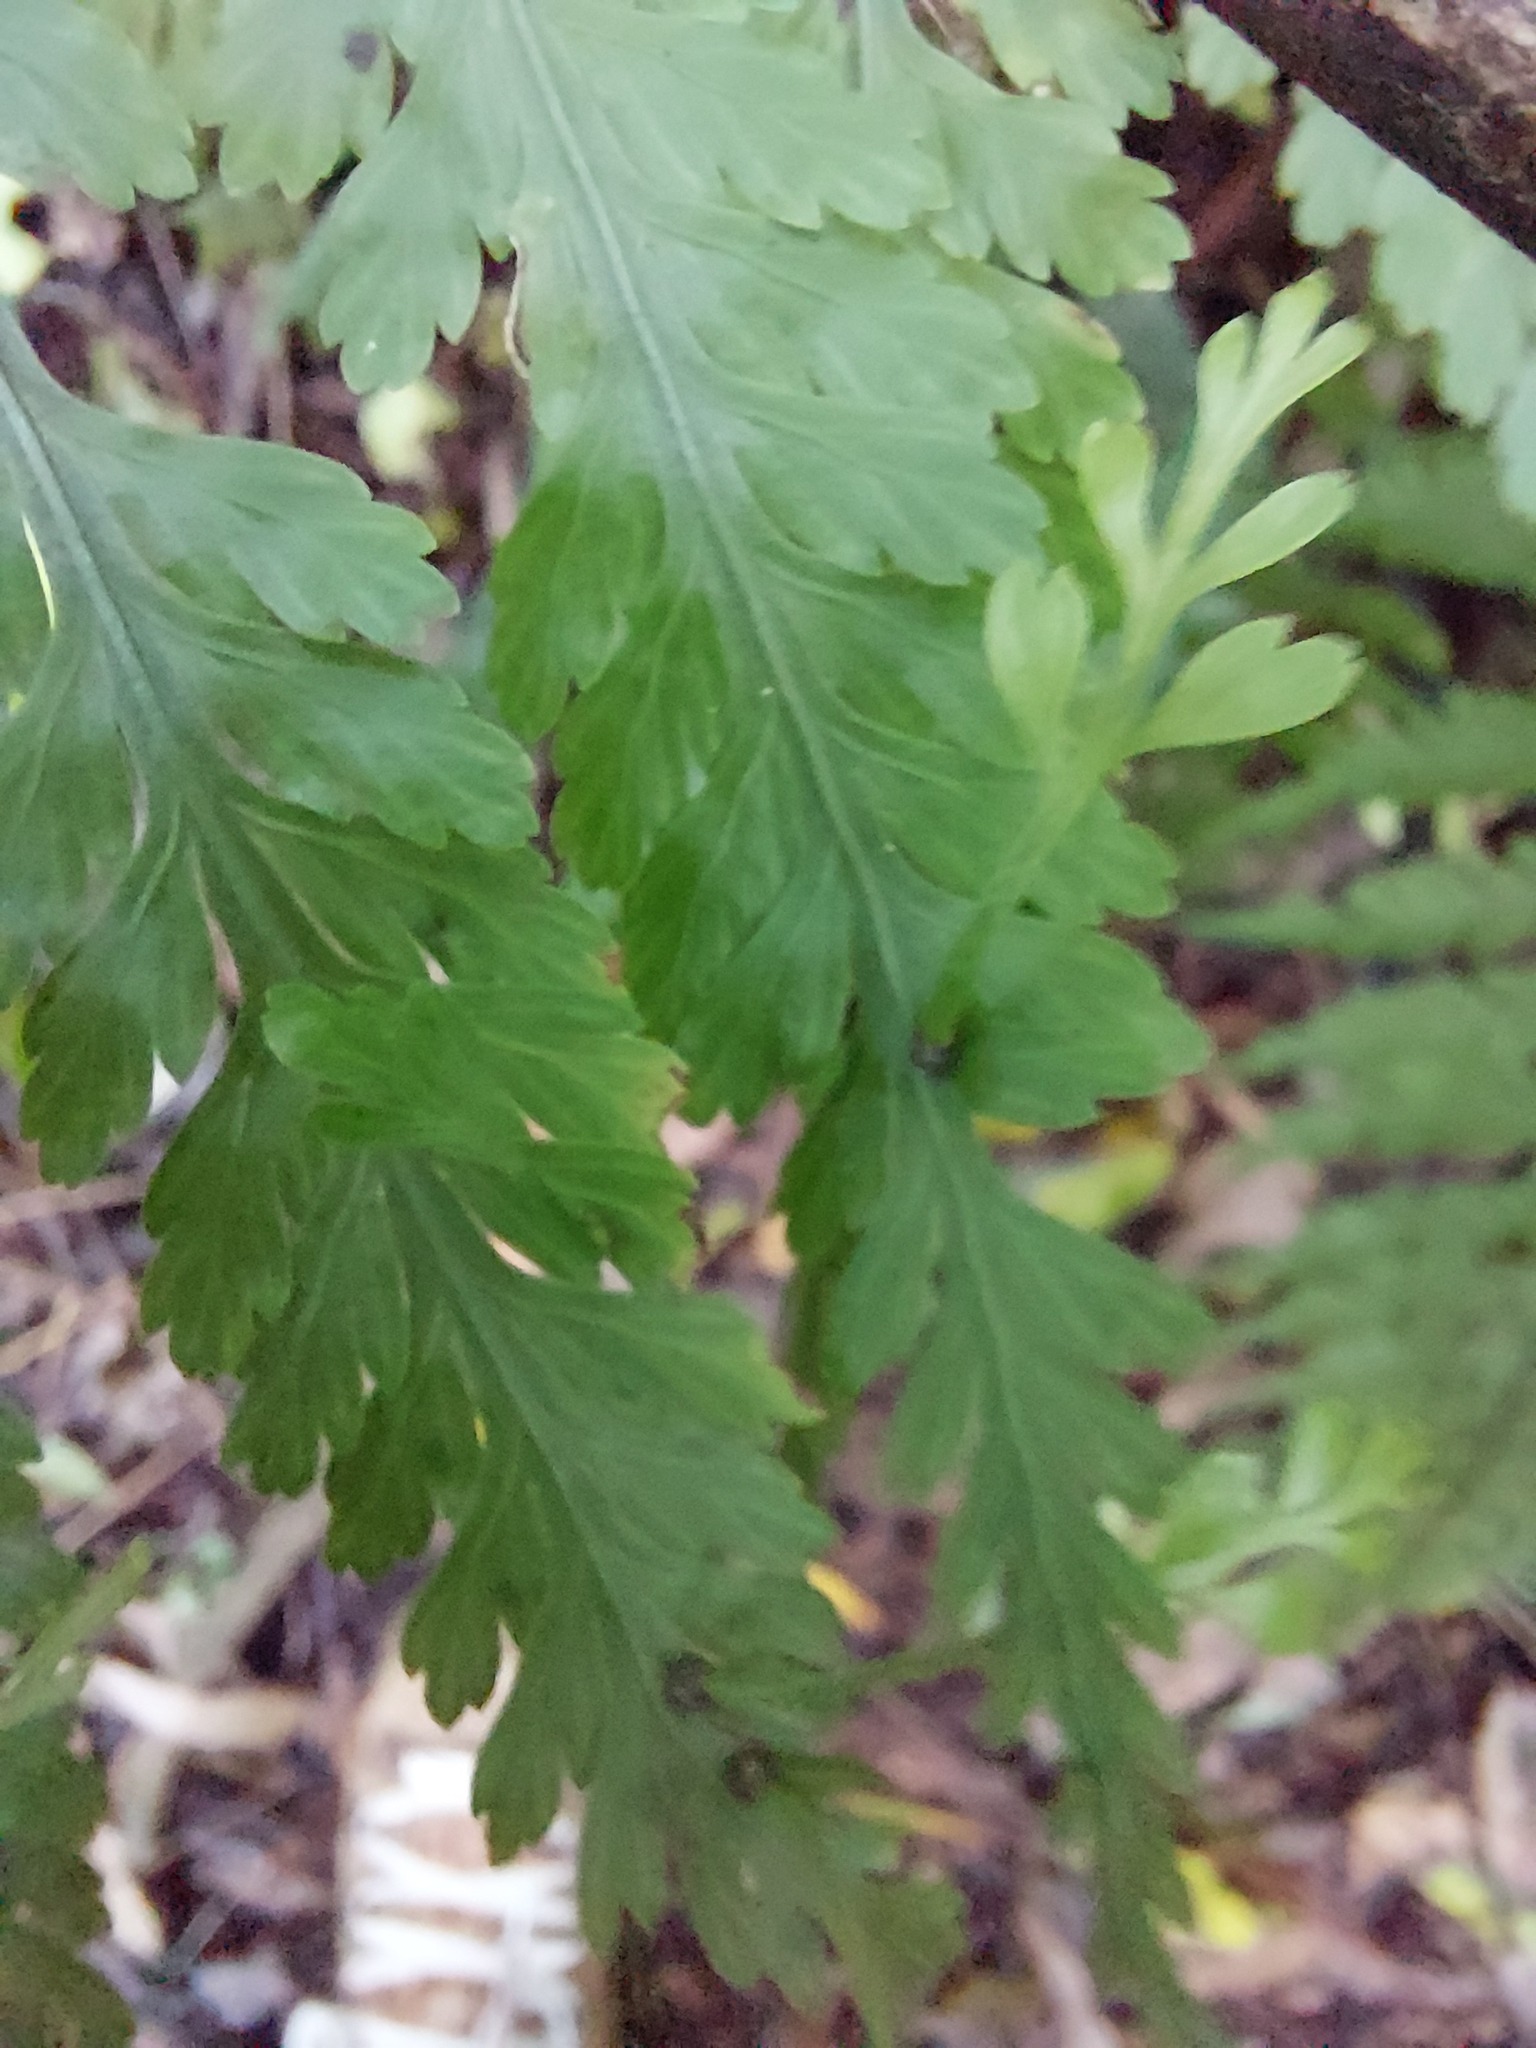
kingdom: Plantae
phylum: Tracheophyta
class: Polypodiopsida
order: Polypodiales
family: Aspleniaceae
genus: Asplenium
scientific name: Asplenium bulbiferum
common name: Mother fern
